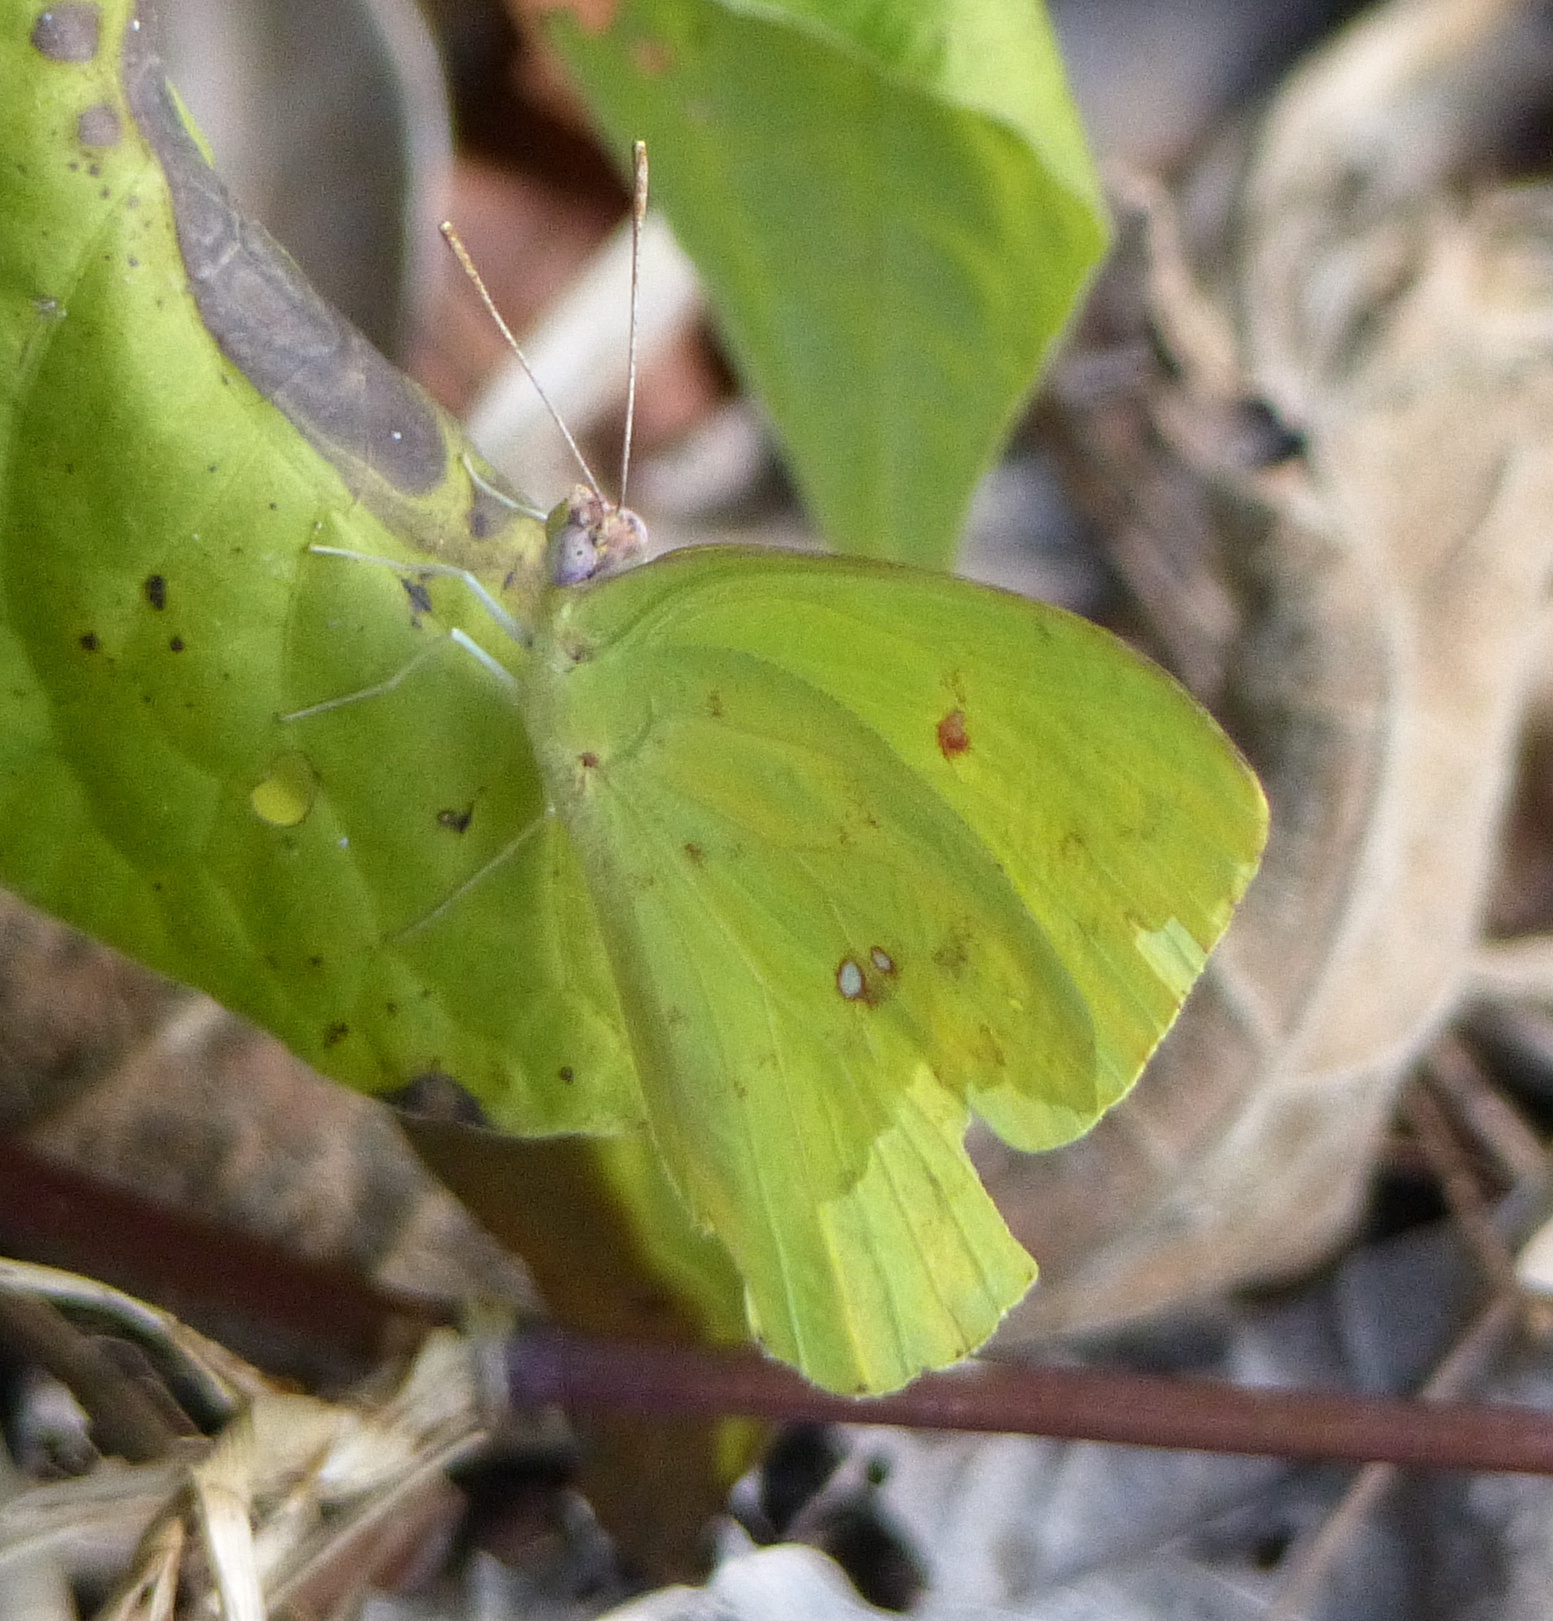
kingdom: Animalia
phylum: Arthropoda
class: Insecta
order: Lepidoptera
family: Pieridae
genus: Phoebis
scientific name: Phoebis marcellina
